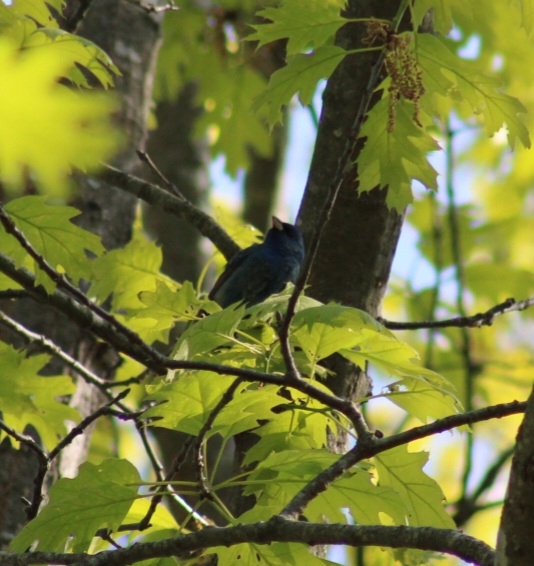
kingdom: Animalia
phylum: Chordata
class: Aves
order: Passeriformes
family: Cardinalidae
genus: Passerina
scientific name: Passerina cyanea
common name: Indigo bunting
